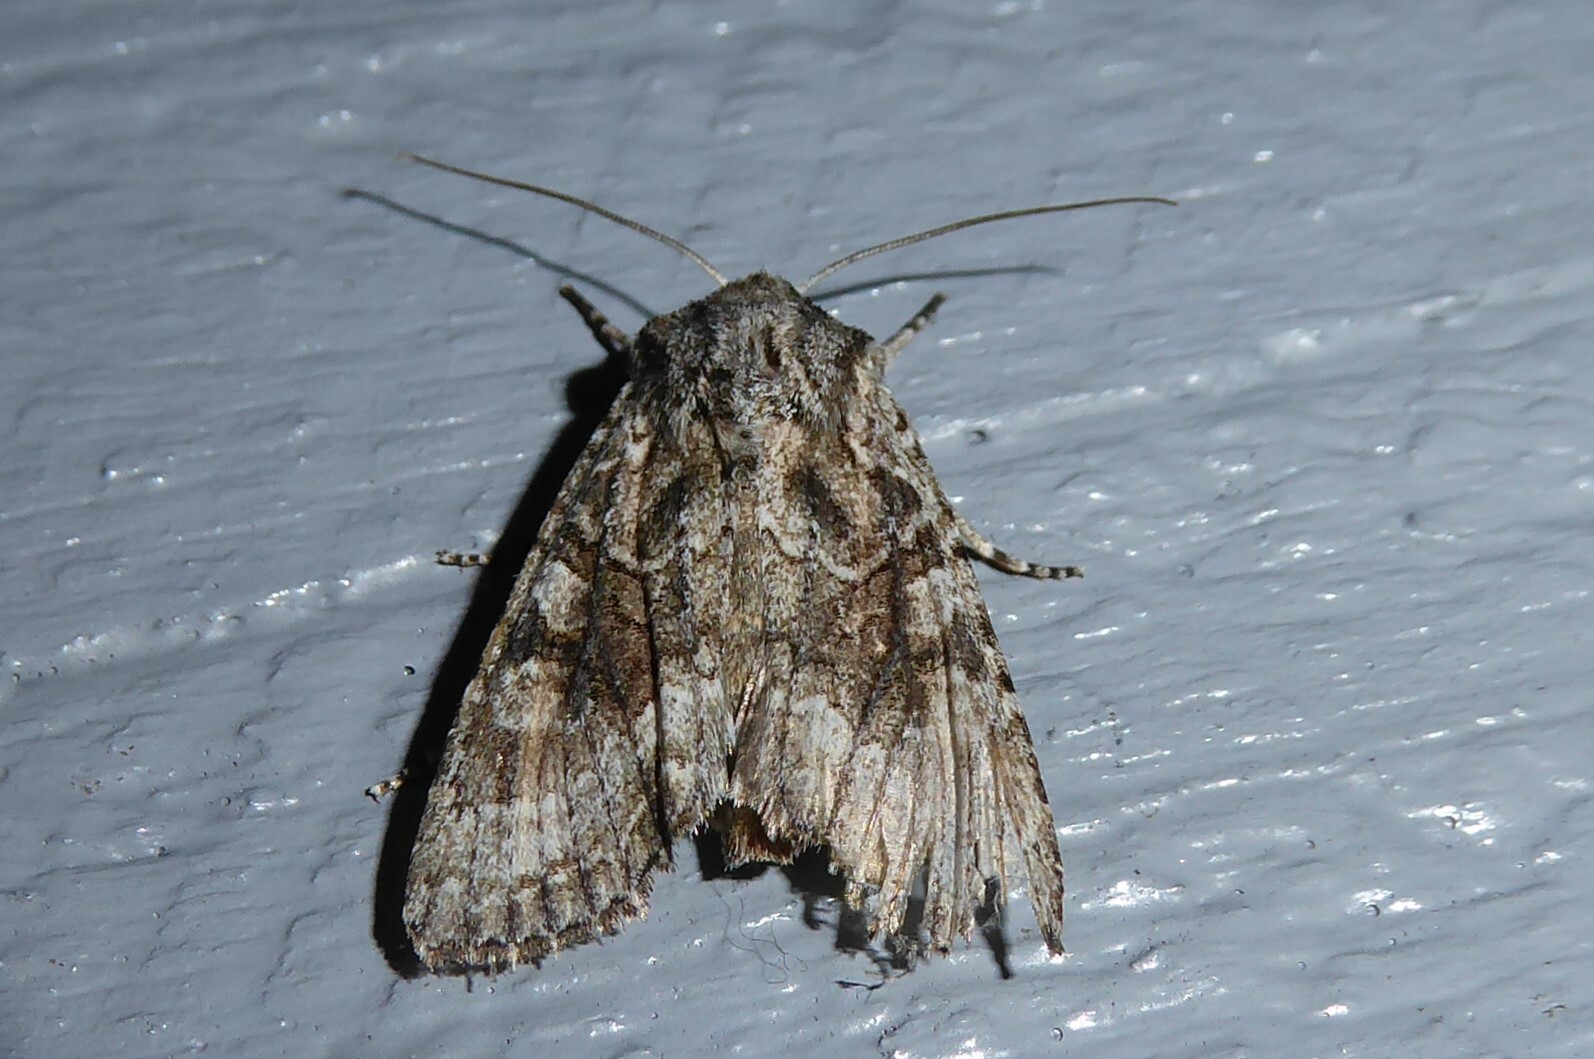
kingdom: Animalia
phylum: Arthropoda
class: Insecta
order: Lepidoptera
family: Noctuidae
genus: Ichneutica
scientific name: Ichneutica mutans
